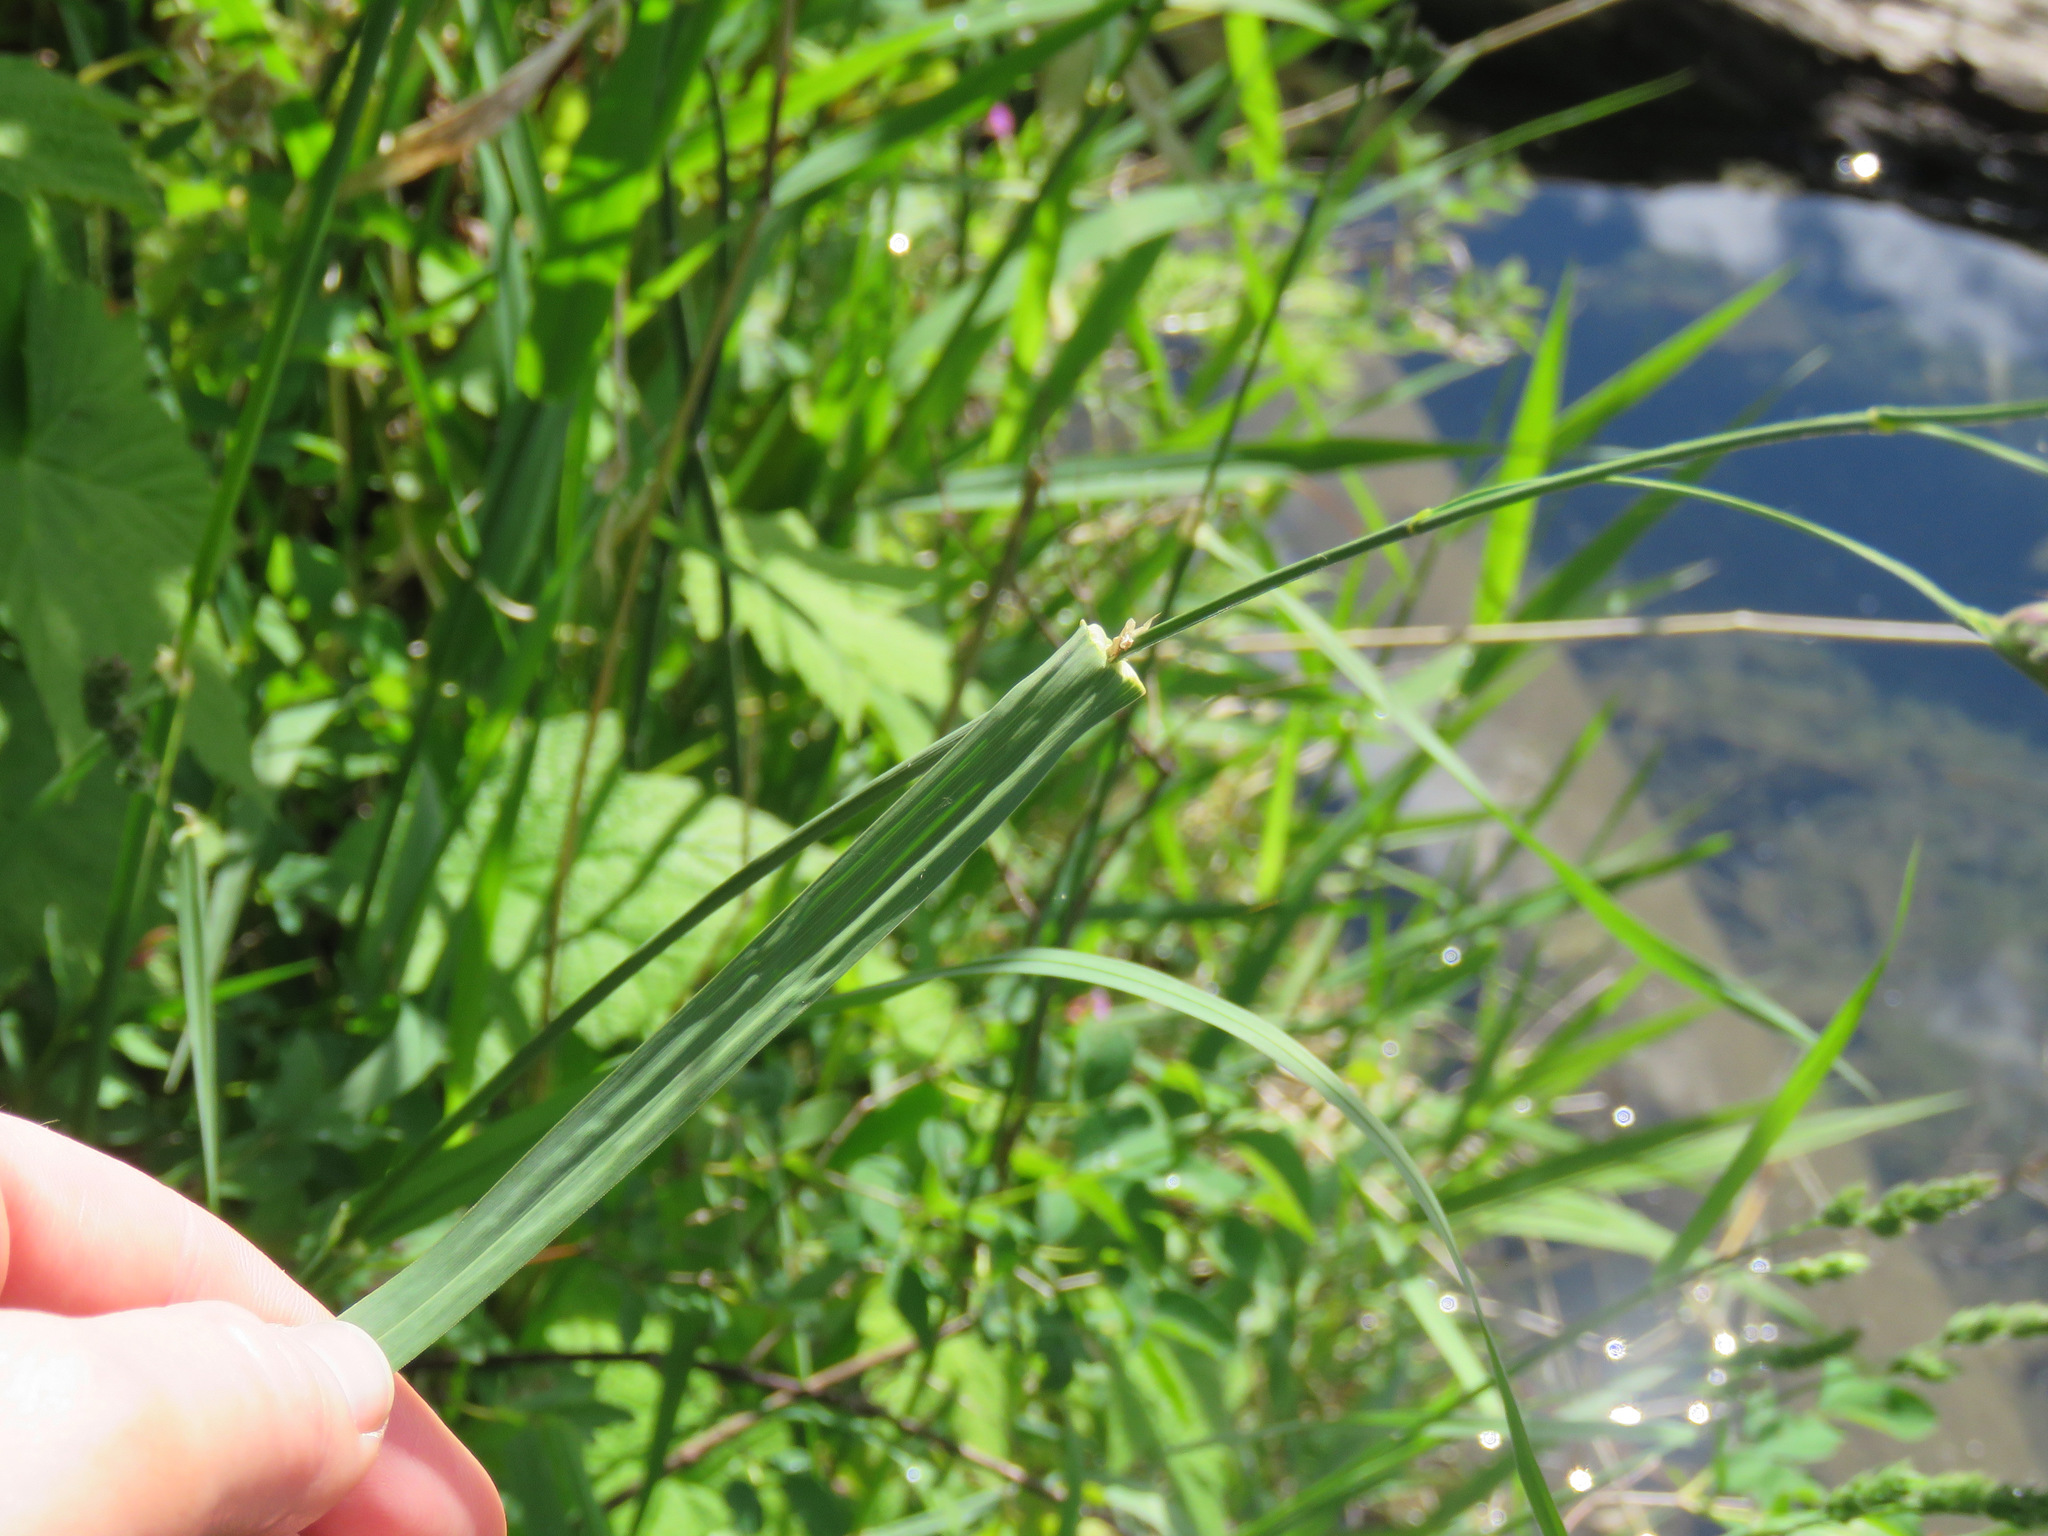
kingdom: Plantae
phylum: Tracheophyta
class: Liliopsida
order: Poales
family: Poaceae
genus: Dactylis
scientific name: Dactylis glomerata
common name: Orchardgrass
